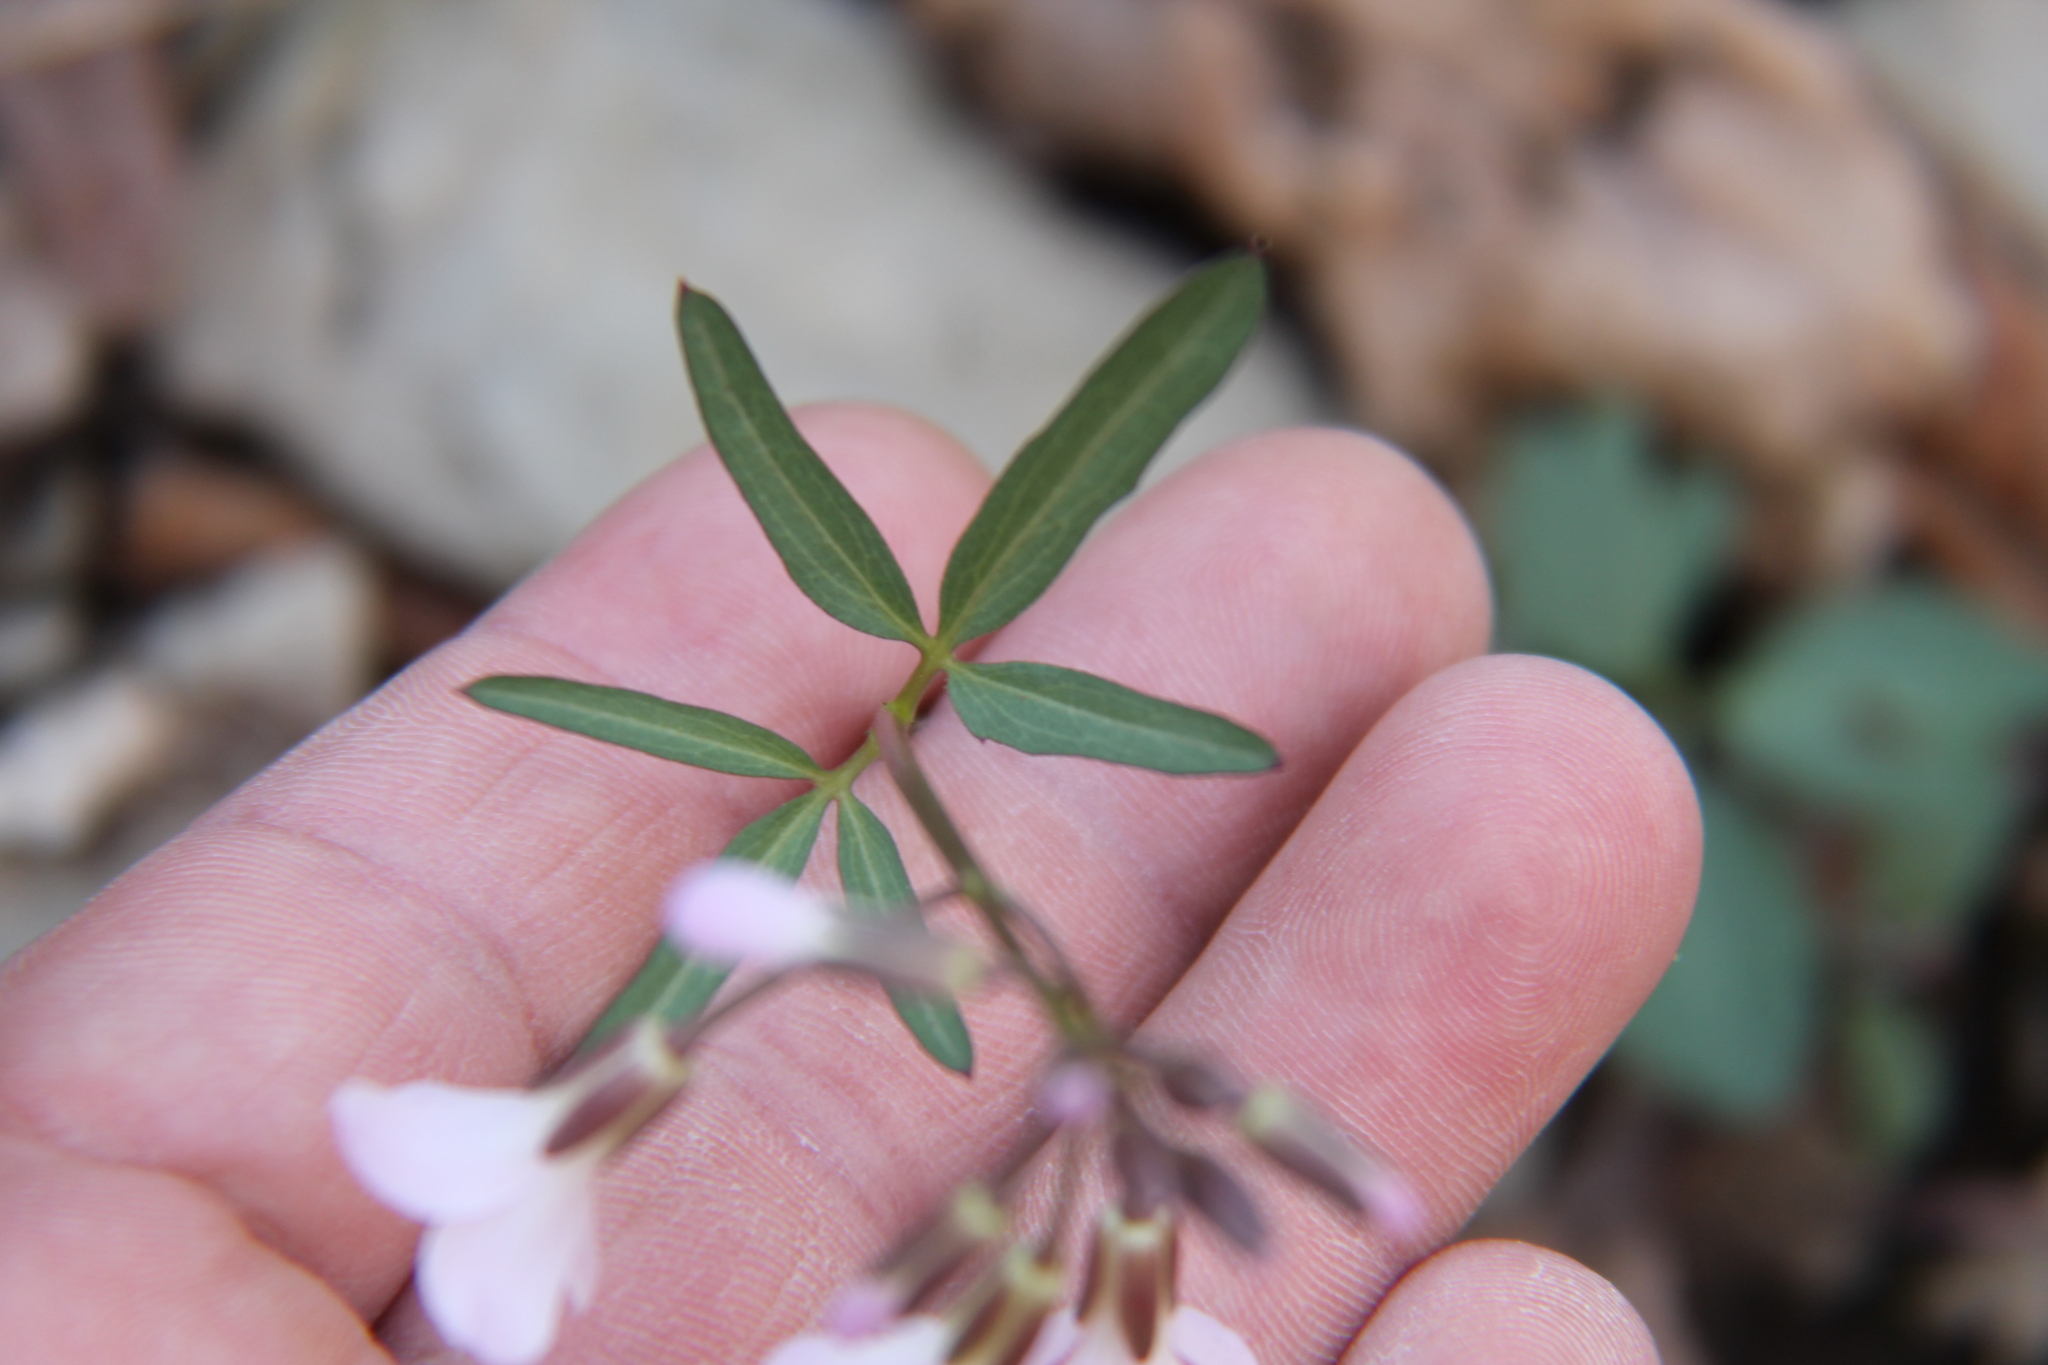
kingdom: Plantae
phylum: Tracheophyta
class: Magnoliopsida
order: Brassicales
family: Brassicaceae
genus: Cardamine
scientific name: Cardamine angustata
